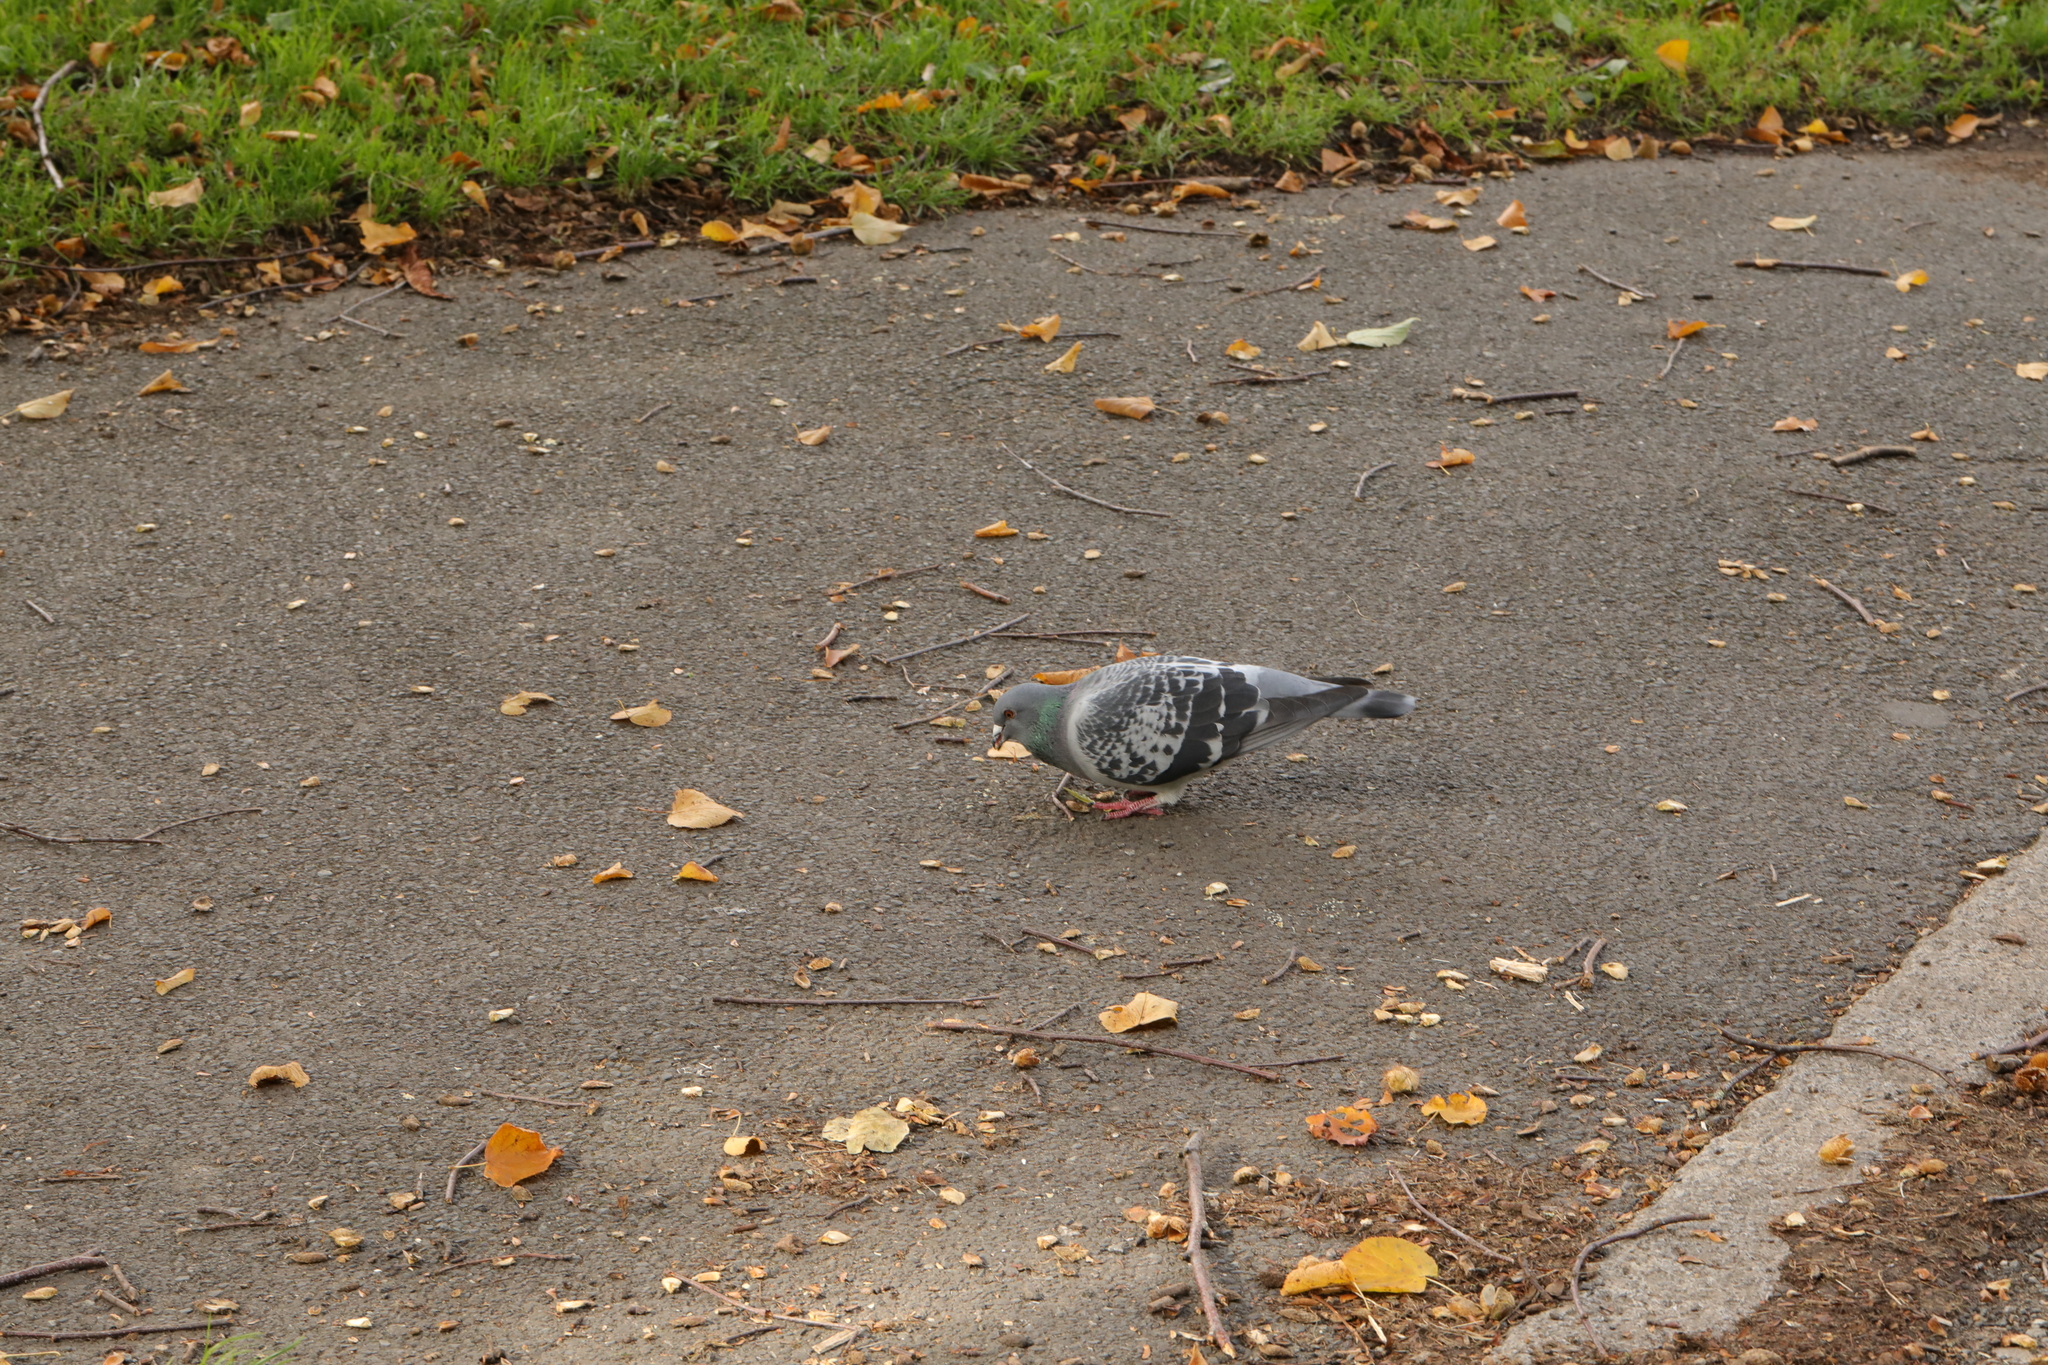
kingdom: Animalia
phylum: Chordata
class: Aves
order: Columbiformes
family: Columbidae
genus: Columba
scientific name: Columba livia
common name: Rock pigeon
